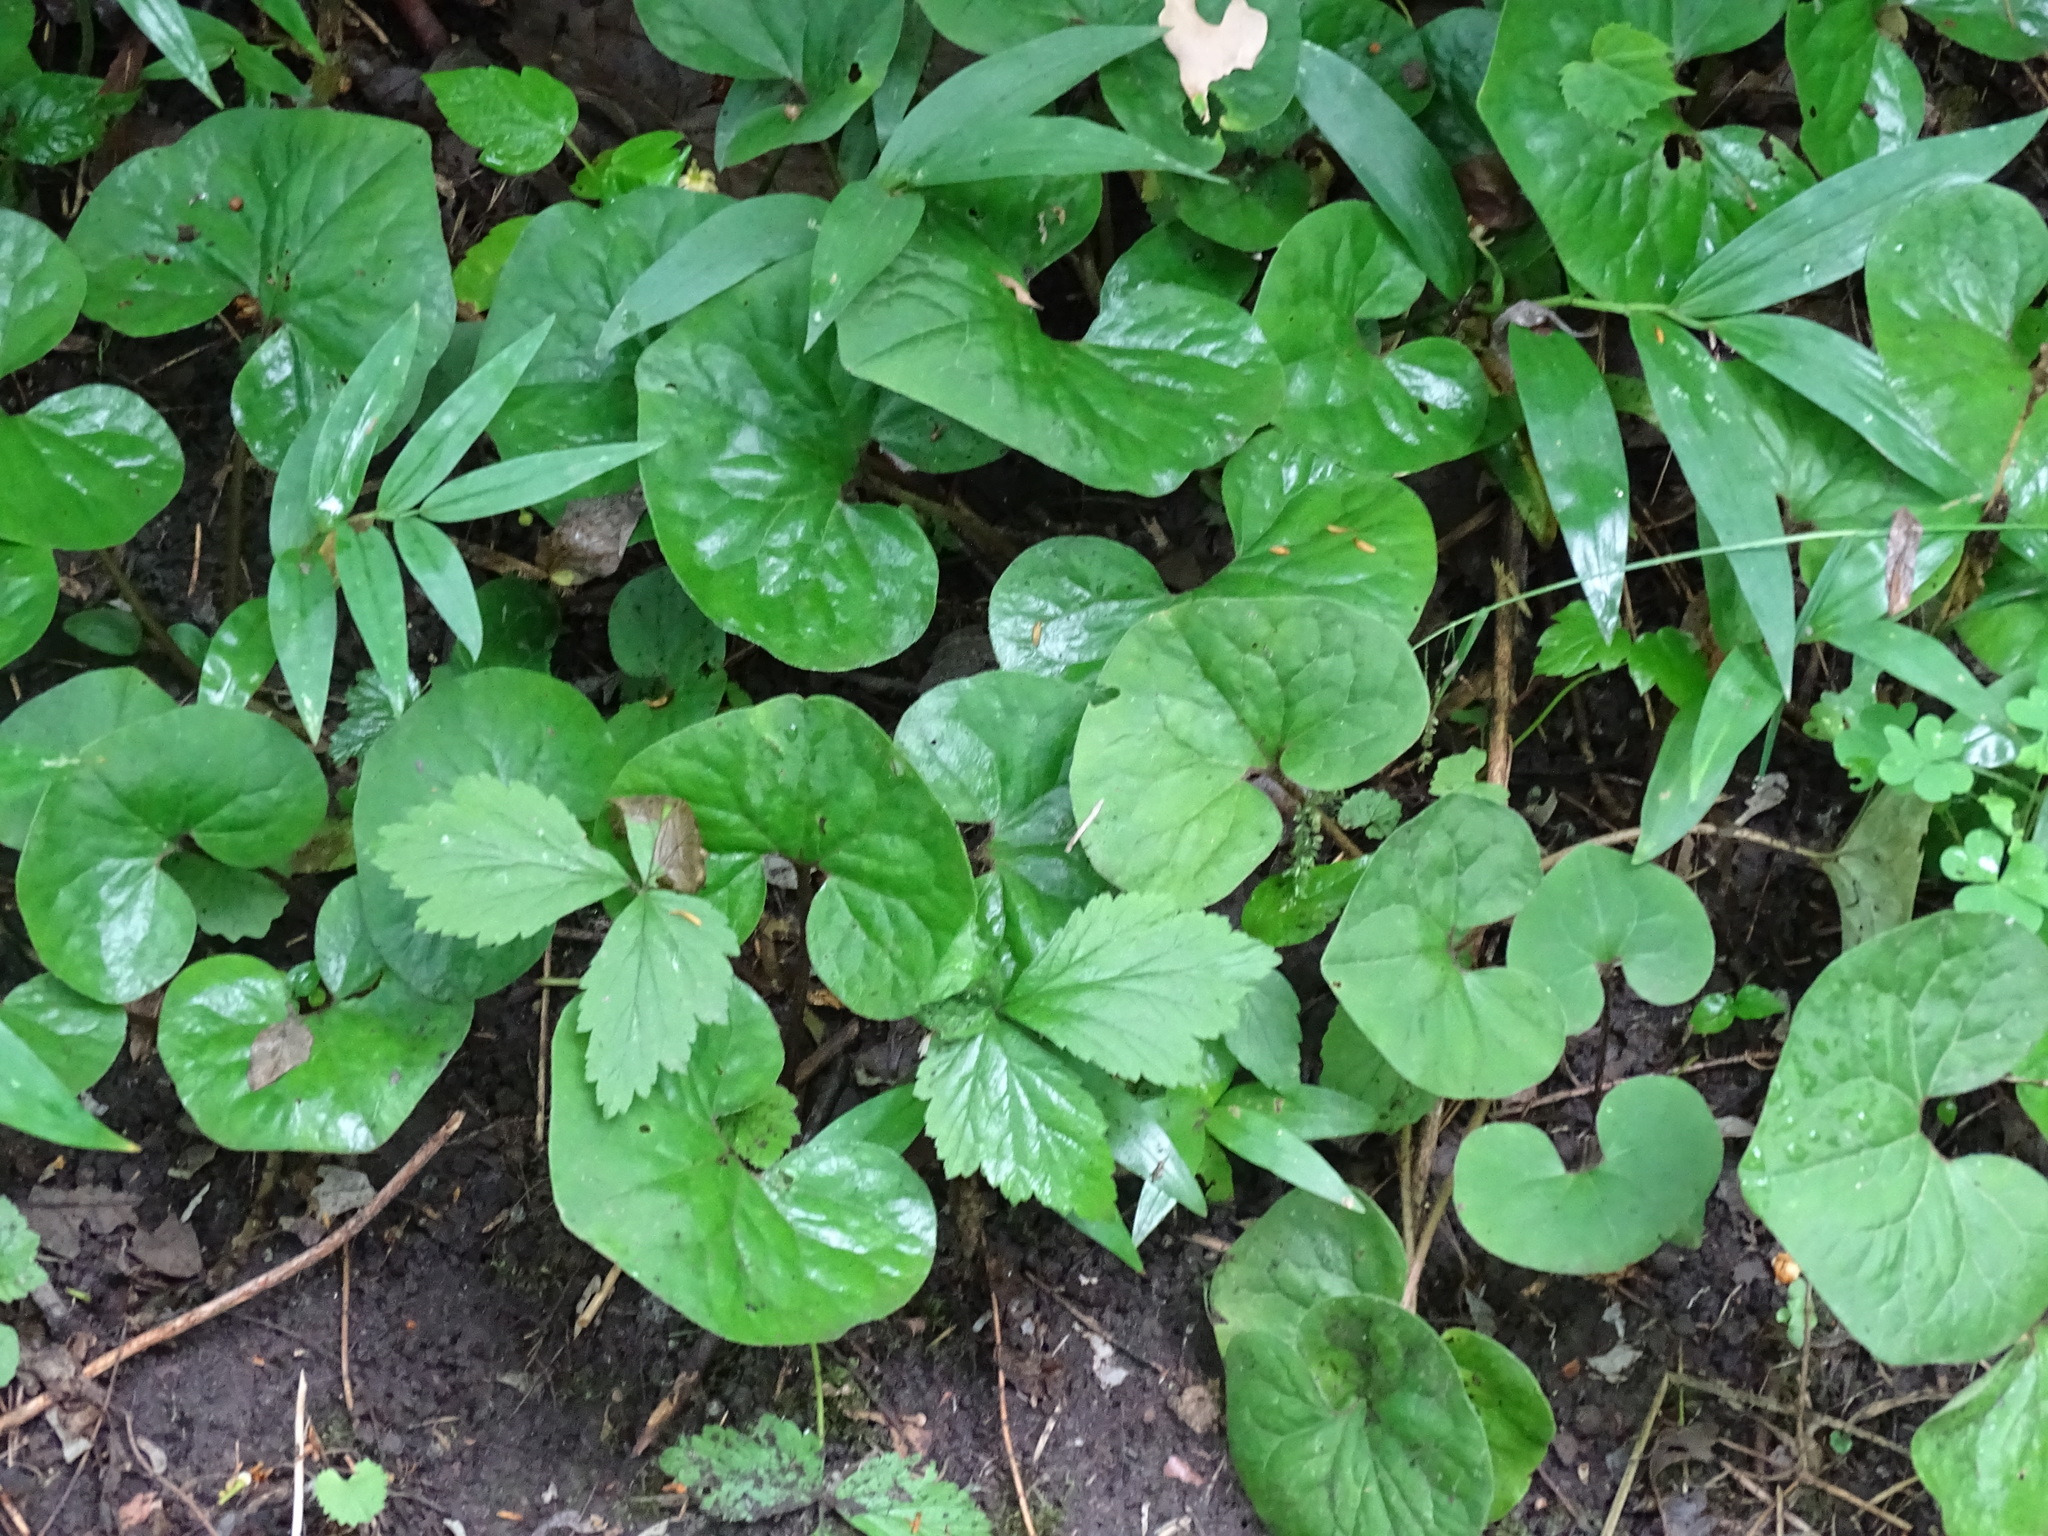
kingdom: Plantae
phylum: Tracheophyta
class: Magnoliopsida
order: Piperales
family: Aristolochiaceae
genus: Asarum
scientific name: Asarum canadense
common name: Wild ginger
